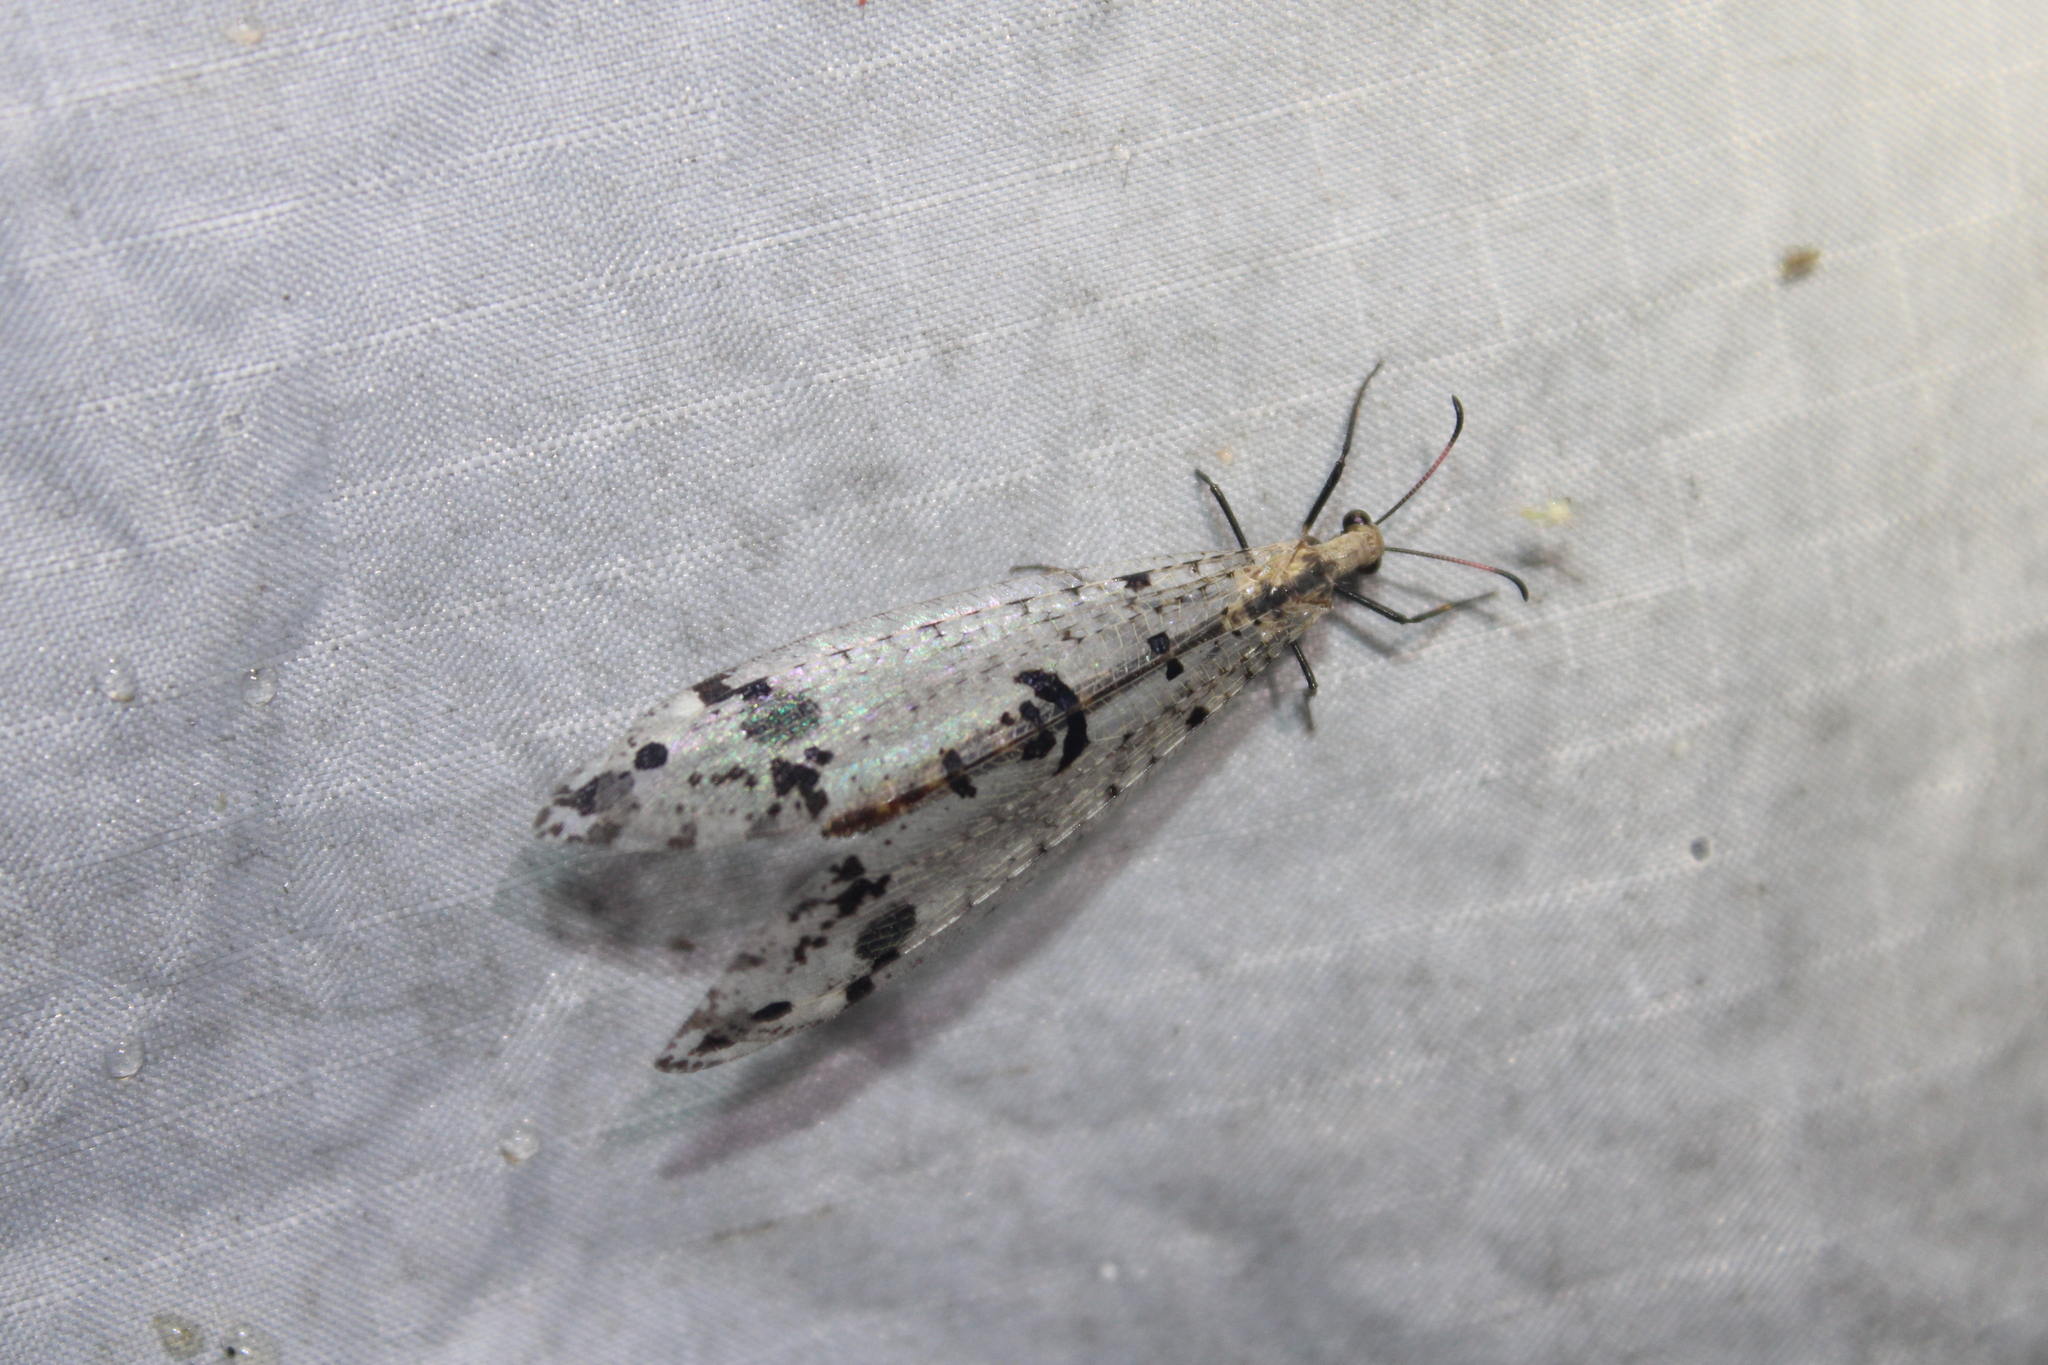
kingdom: Animalia
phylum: Arthropoda
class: Insecta
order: Neuroptera
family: Myrmeleontidae
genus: Dendroleon
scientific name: Dendroleon obsoletus
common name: Eastern spotted-winged antlion
